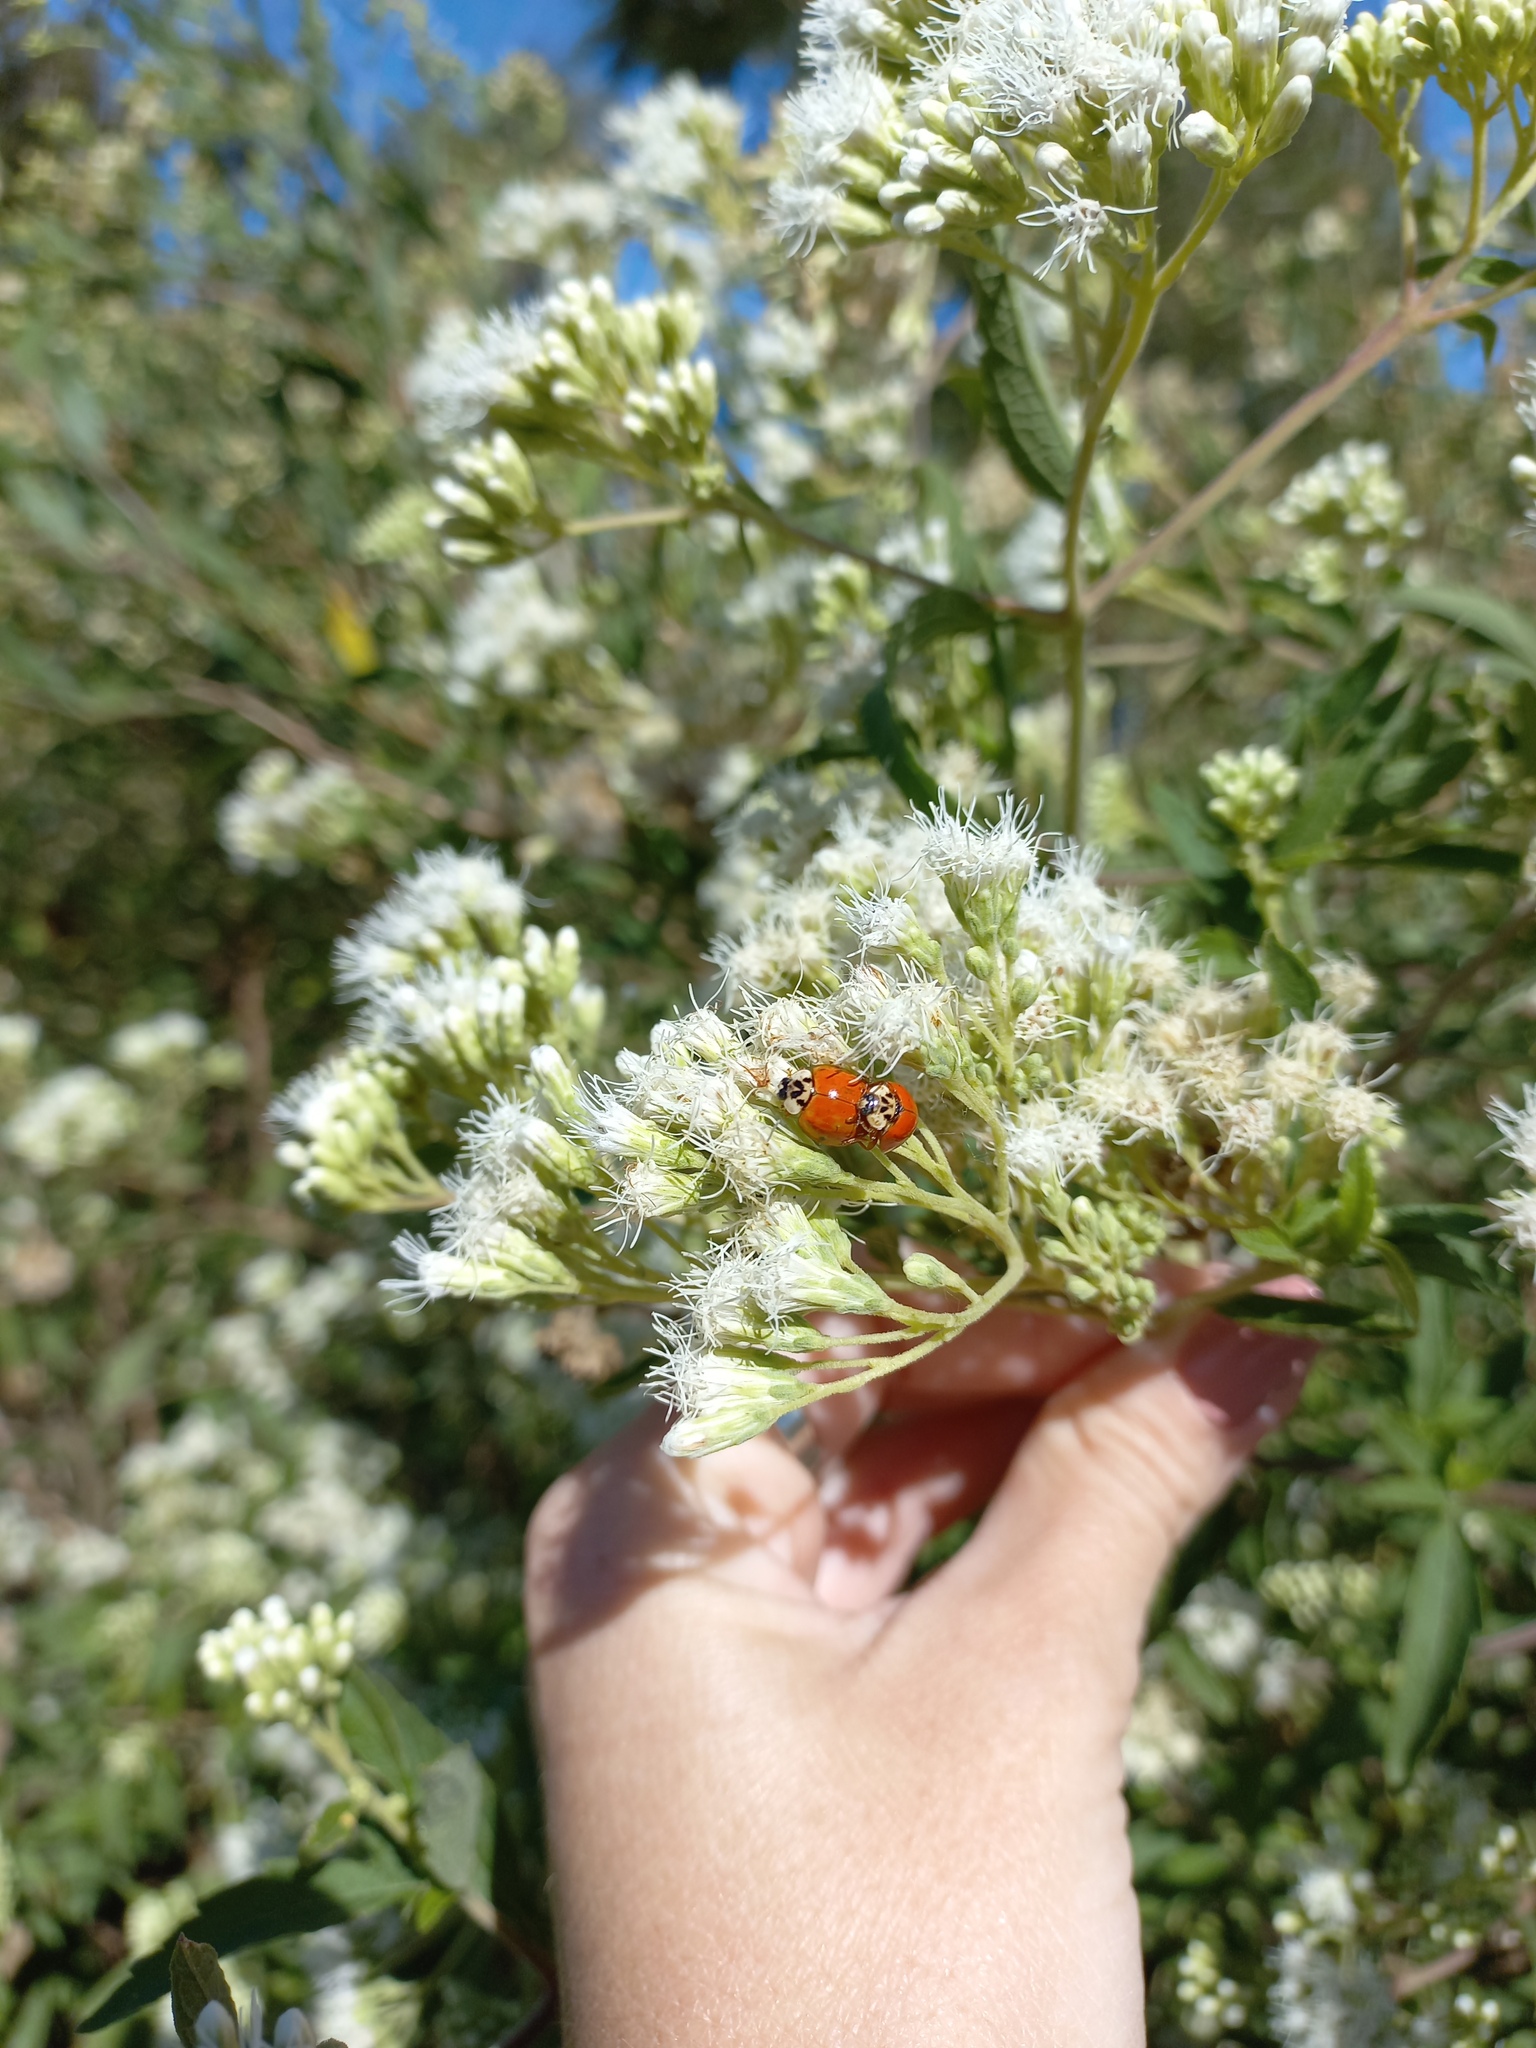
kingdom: Animalia
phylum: Arthropoda
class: Insecta
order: Coleoptera
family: Coccinellidae
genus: Harmonia
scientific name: Harmonia axyridis
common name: Harlequin ladybird
